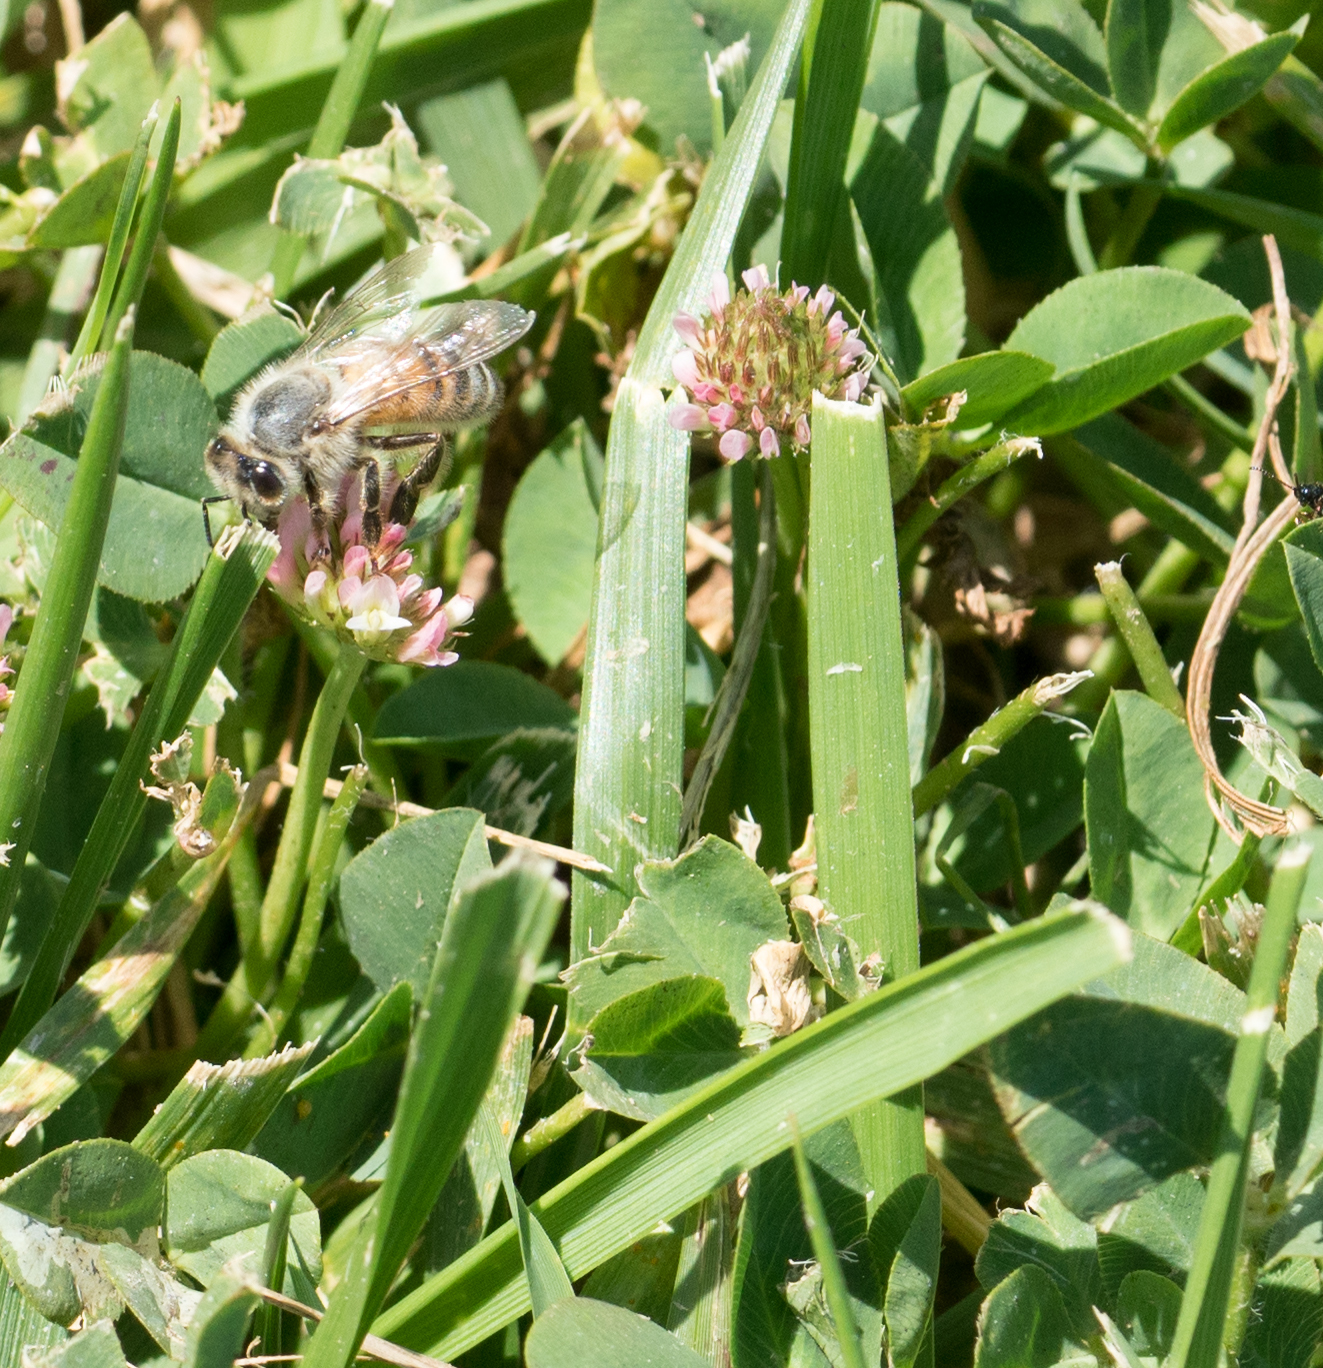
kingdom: Animalia
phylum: Arthropoda
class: Insecta
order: Hymenoptera
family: Apidae
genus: Apis
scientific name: Apis mellifera
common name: Honey bee
